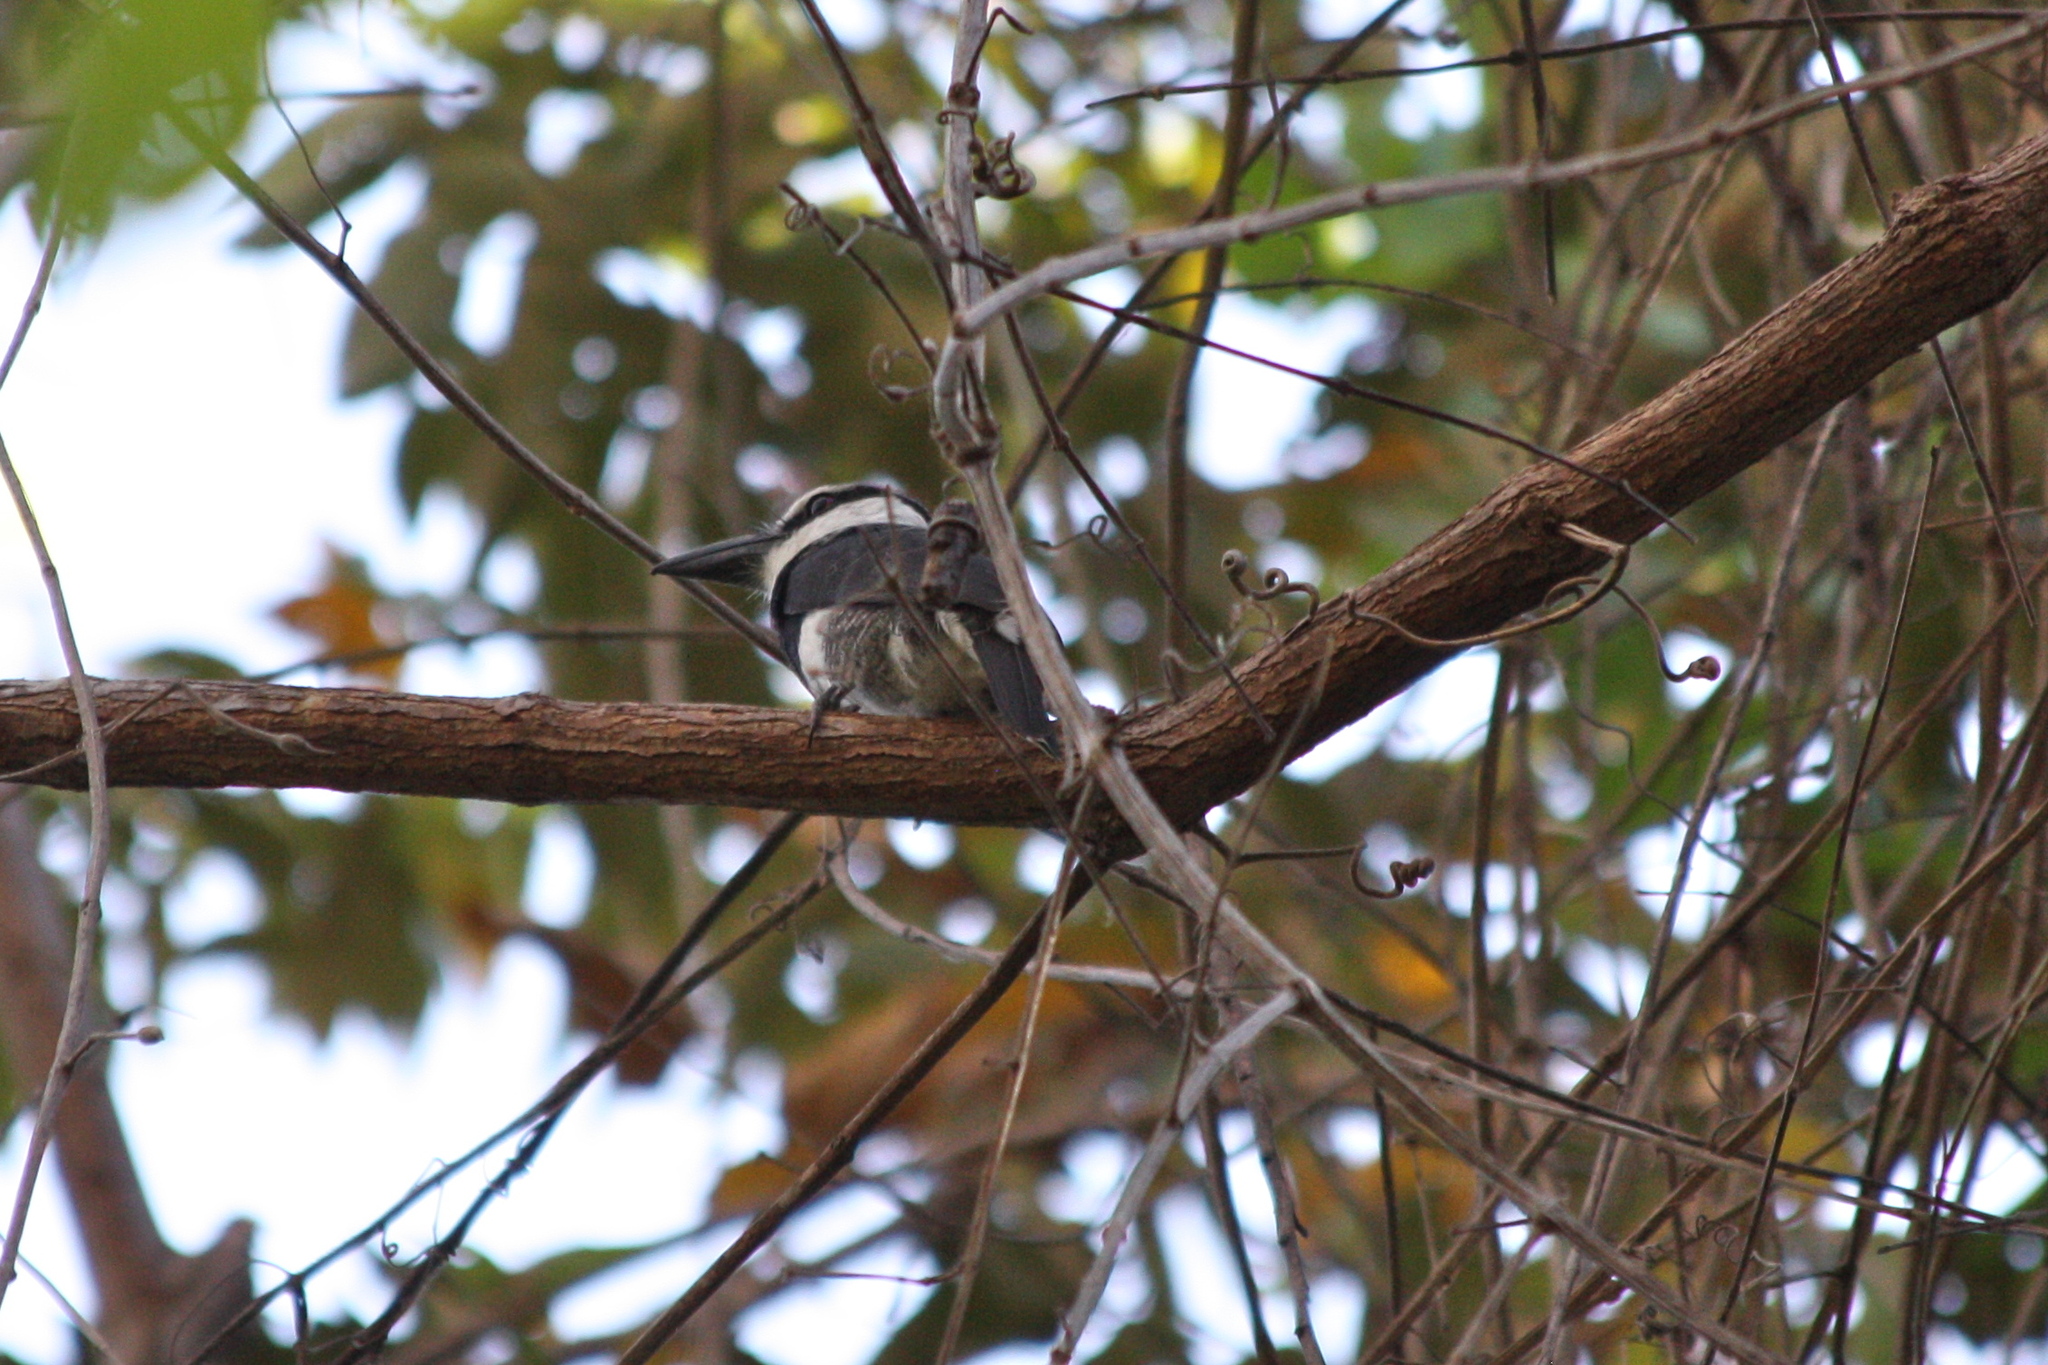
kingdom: Animalia
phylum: Chordata
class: Aves
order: Piciformes
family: Bucconidae
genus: Notharchus
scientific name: Notharchus hyperrhynchus
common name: White-necked puffbird
